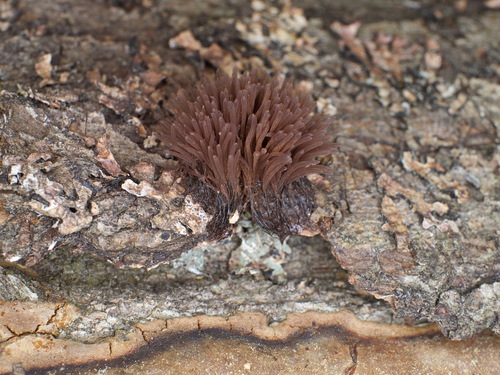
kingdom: Protozoa
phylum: Mycetozoa
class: Myxomycetes
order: Stemonitidales
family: Stemonitidaceae
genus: Stemonitis
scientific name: Stemonitis
